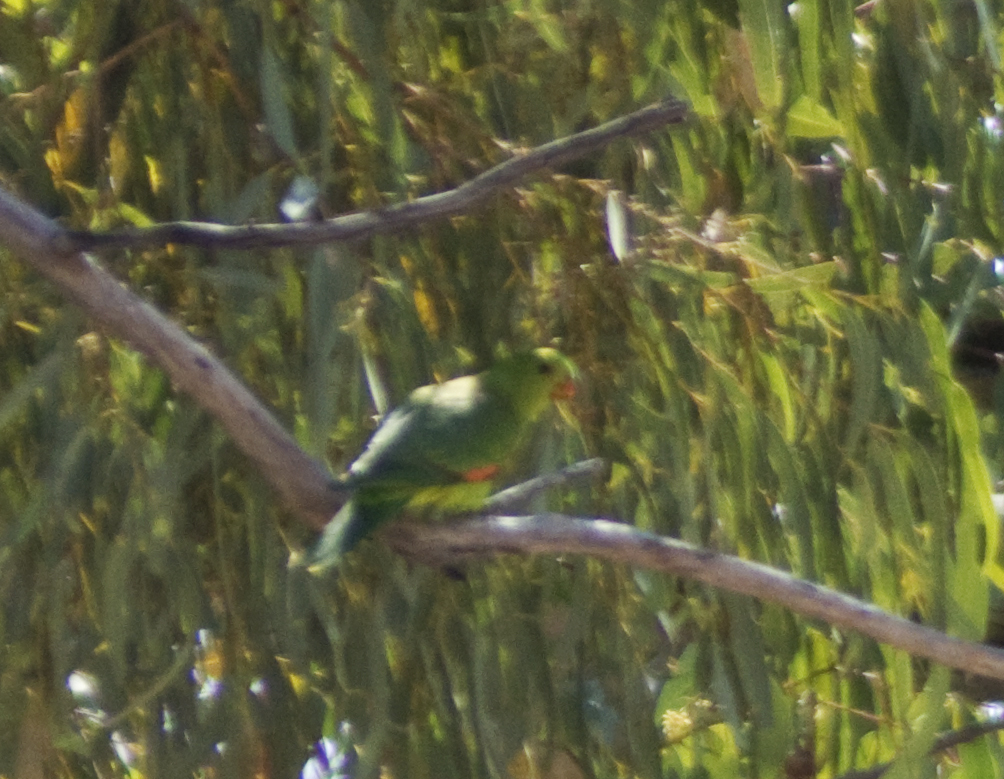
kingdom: Animalia
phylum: Chordata
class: Aves
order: Psittaciformes
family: Psittacidae
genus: Aprosmictus
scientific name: Aprosmictus erythropterus
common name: Red-winged parrot
